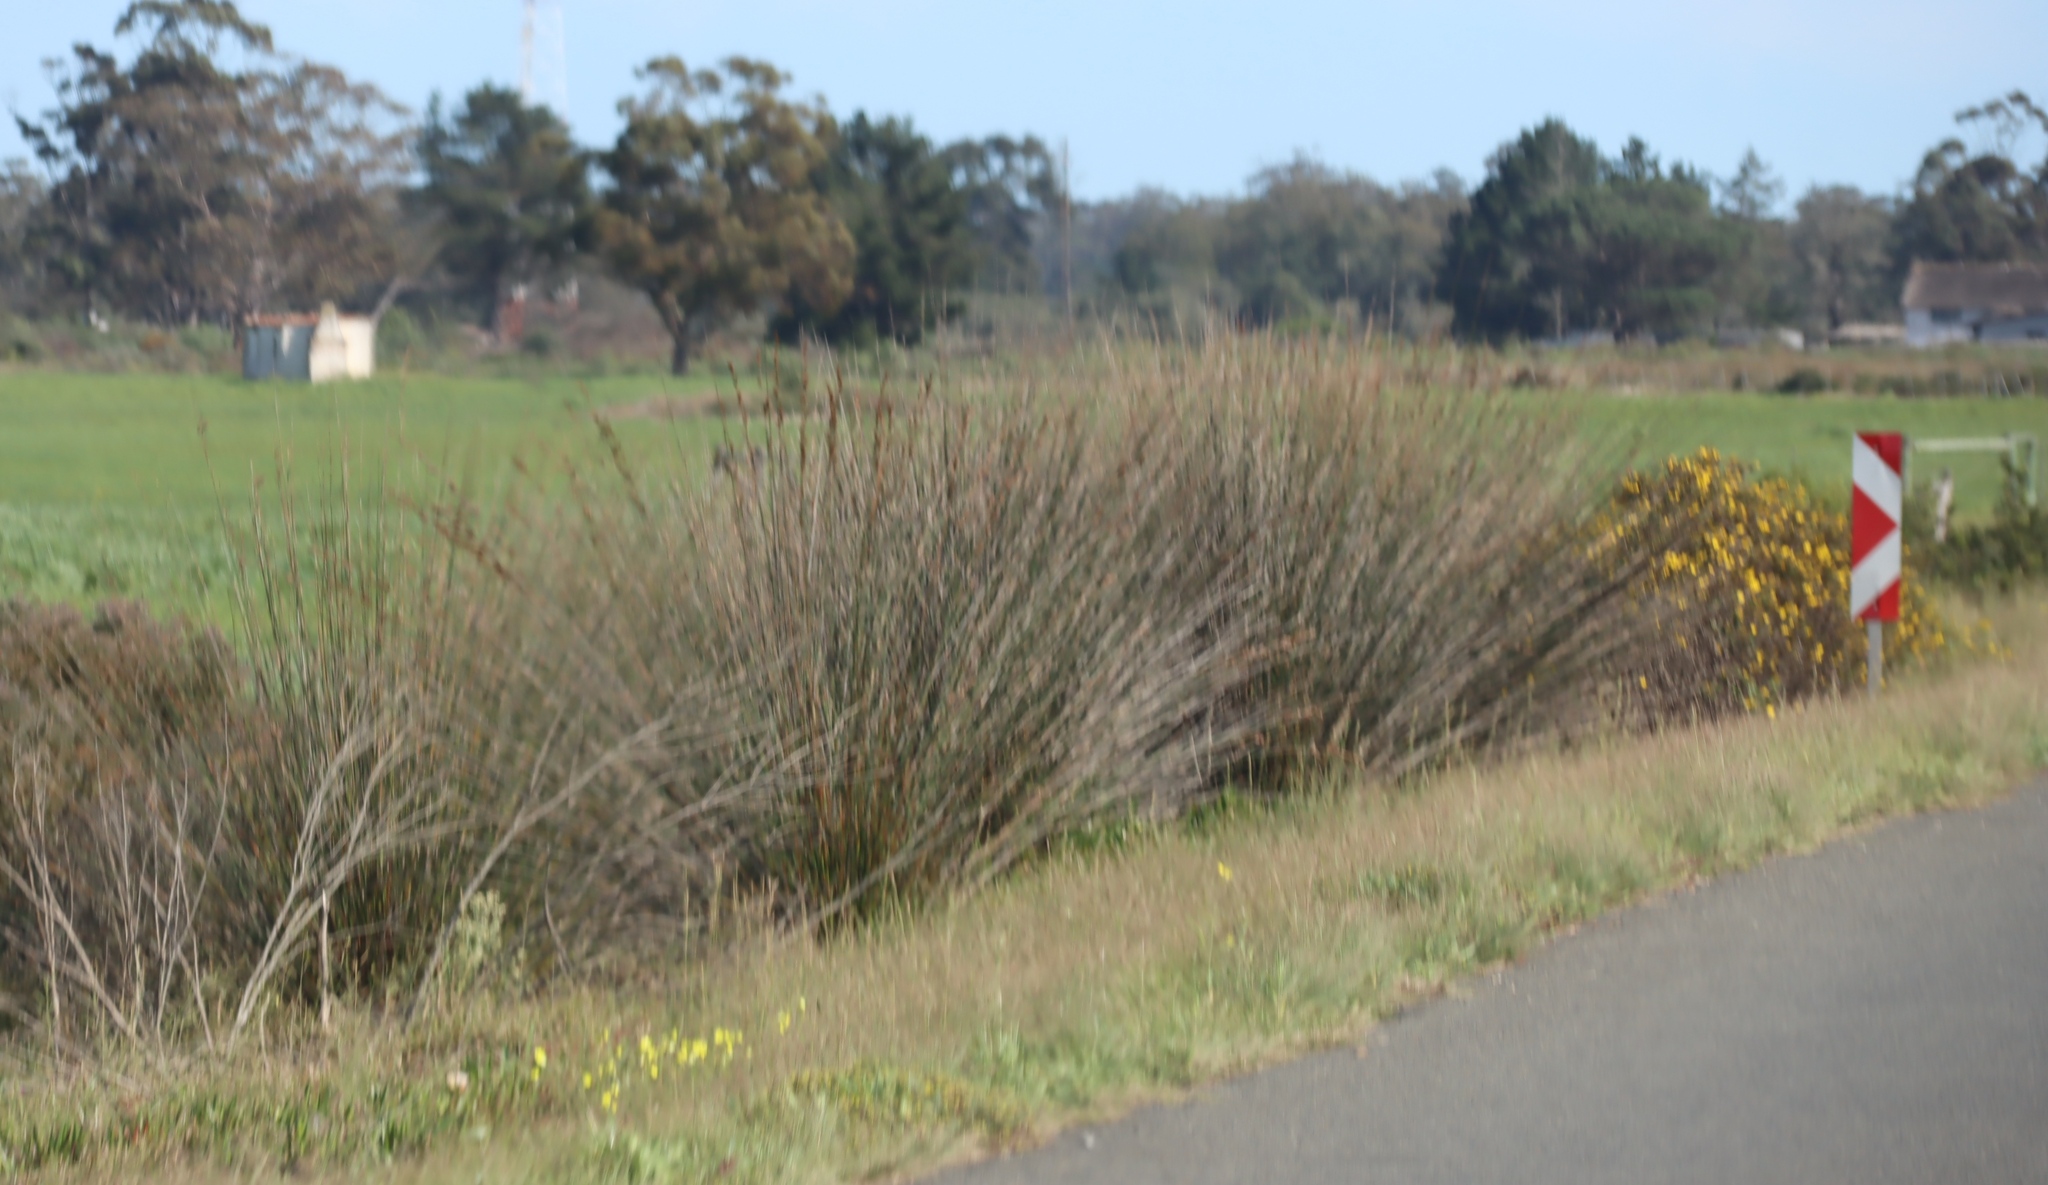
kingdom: Plantae
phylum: Tracheophyta
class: Liliopsida
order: Poales
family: Restionaceae
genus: Thamnochortus
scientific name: Thamnochortus insignis
